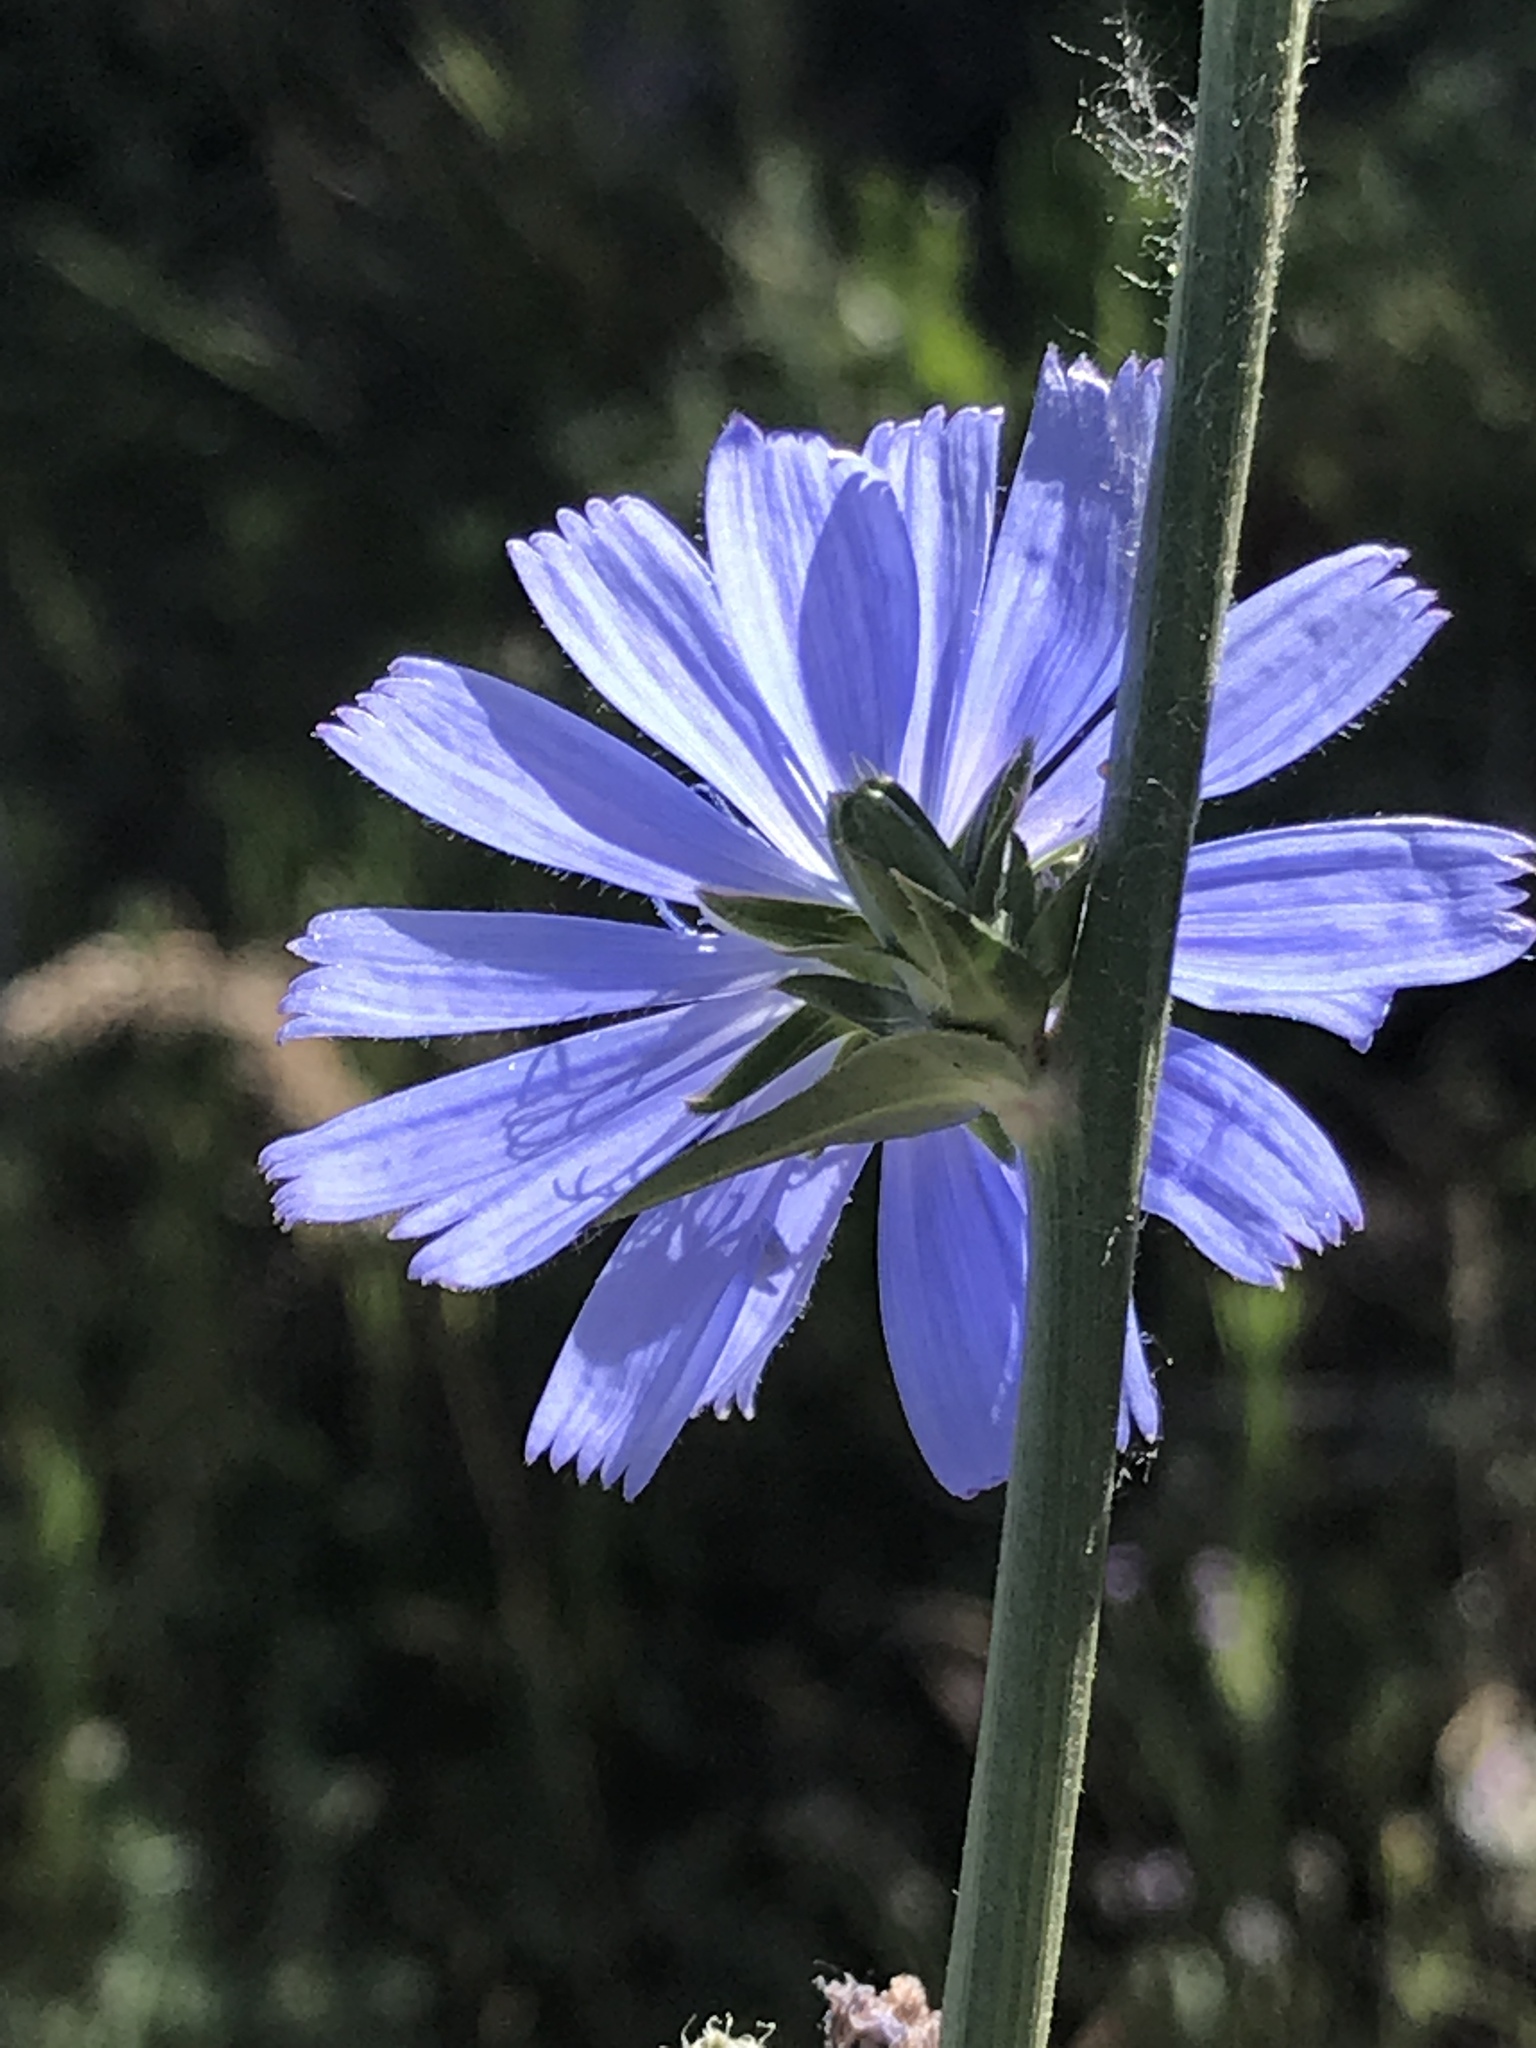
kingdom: Plantae
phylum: Tracheophyta
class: Magnoliopsida
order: Asterales
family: Asteraceae
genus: Cichorium
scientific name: Cichorium intybus
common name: Chicory
